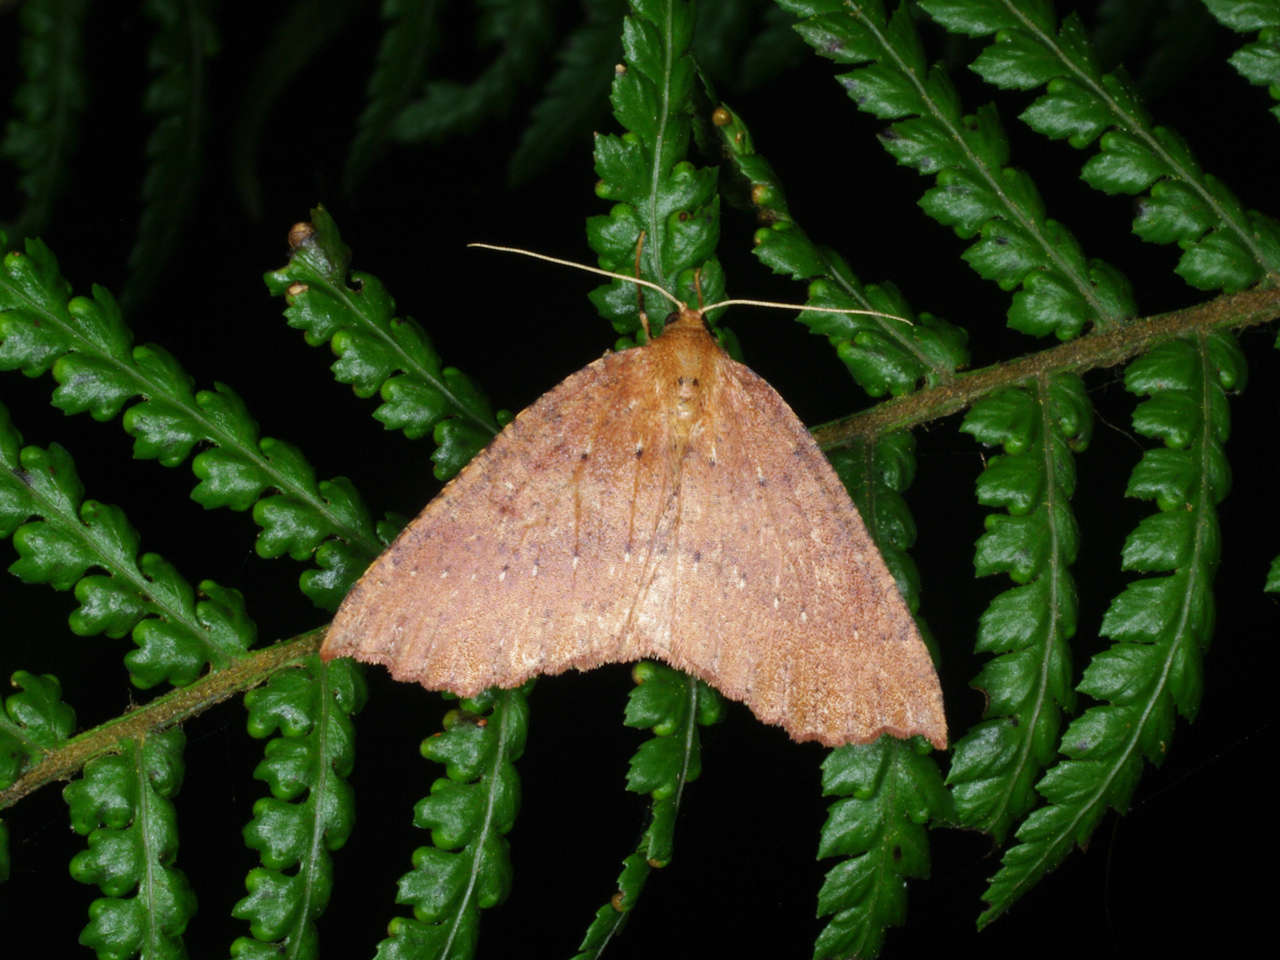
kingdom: Animalia
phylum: Arthropoda
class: Insecta
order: Lepidoptera
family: Geometridae
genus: Idiodes
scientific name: Idiodes prionosema
